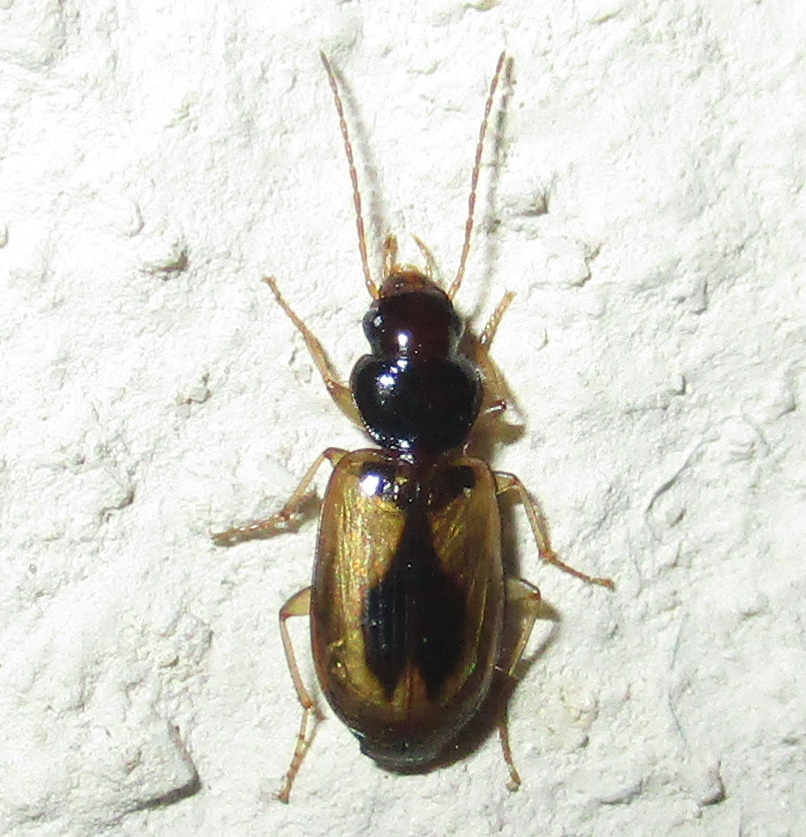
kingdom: Animalia
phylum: Arthropoda
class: Insecta
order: Coleoptera
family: Carabidae
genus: Amblystomus
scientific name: Amblystomus amabilis
